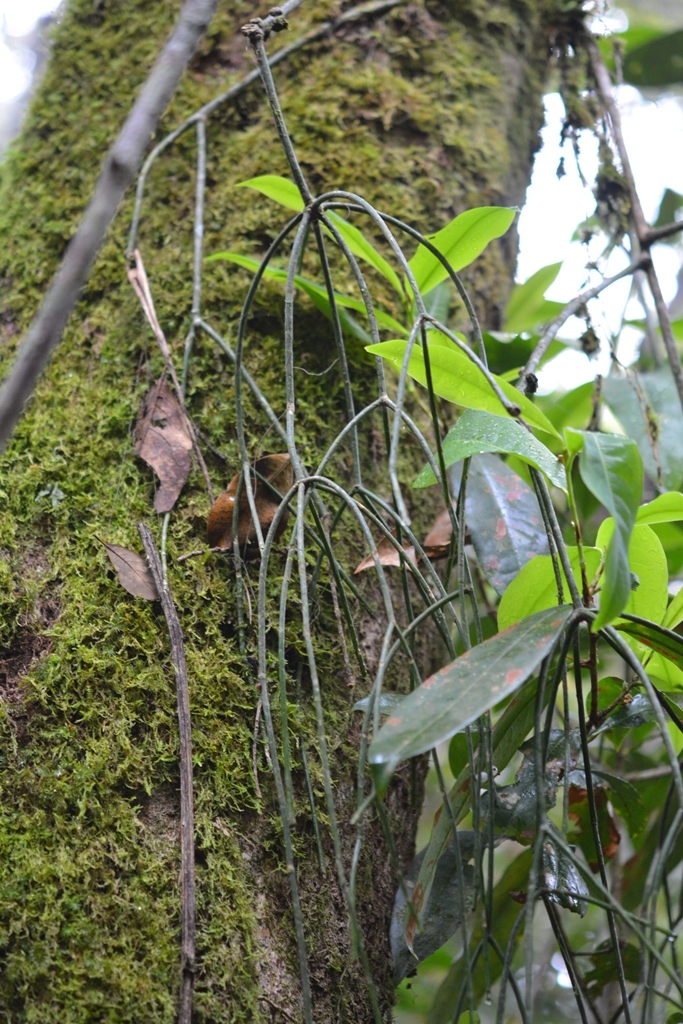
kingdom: Plantae
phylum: Tracheophyta
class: Magnoliopsida
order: Caryophyllales
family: Cactaceae
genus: Rhipsalis
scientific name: Rhipsalis baccifera
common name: Mistletoe cactus
